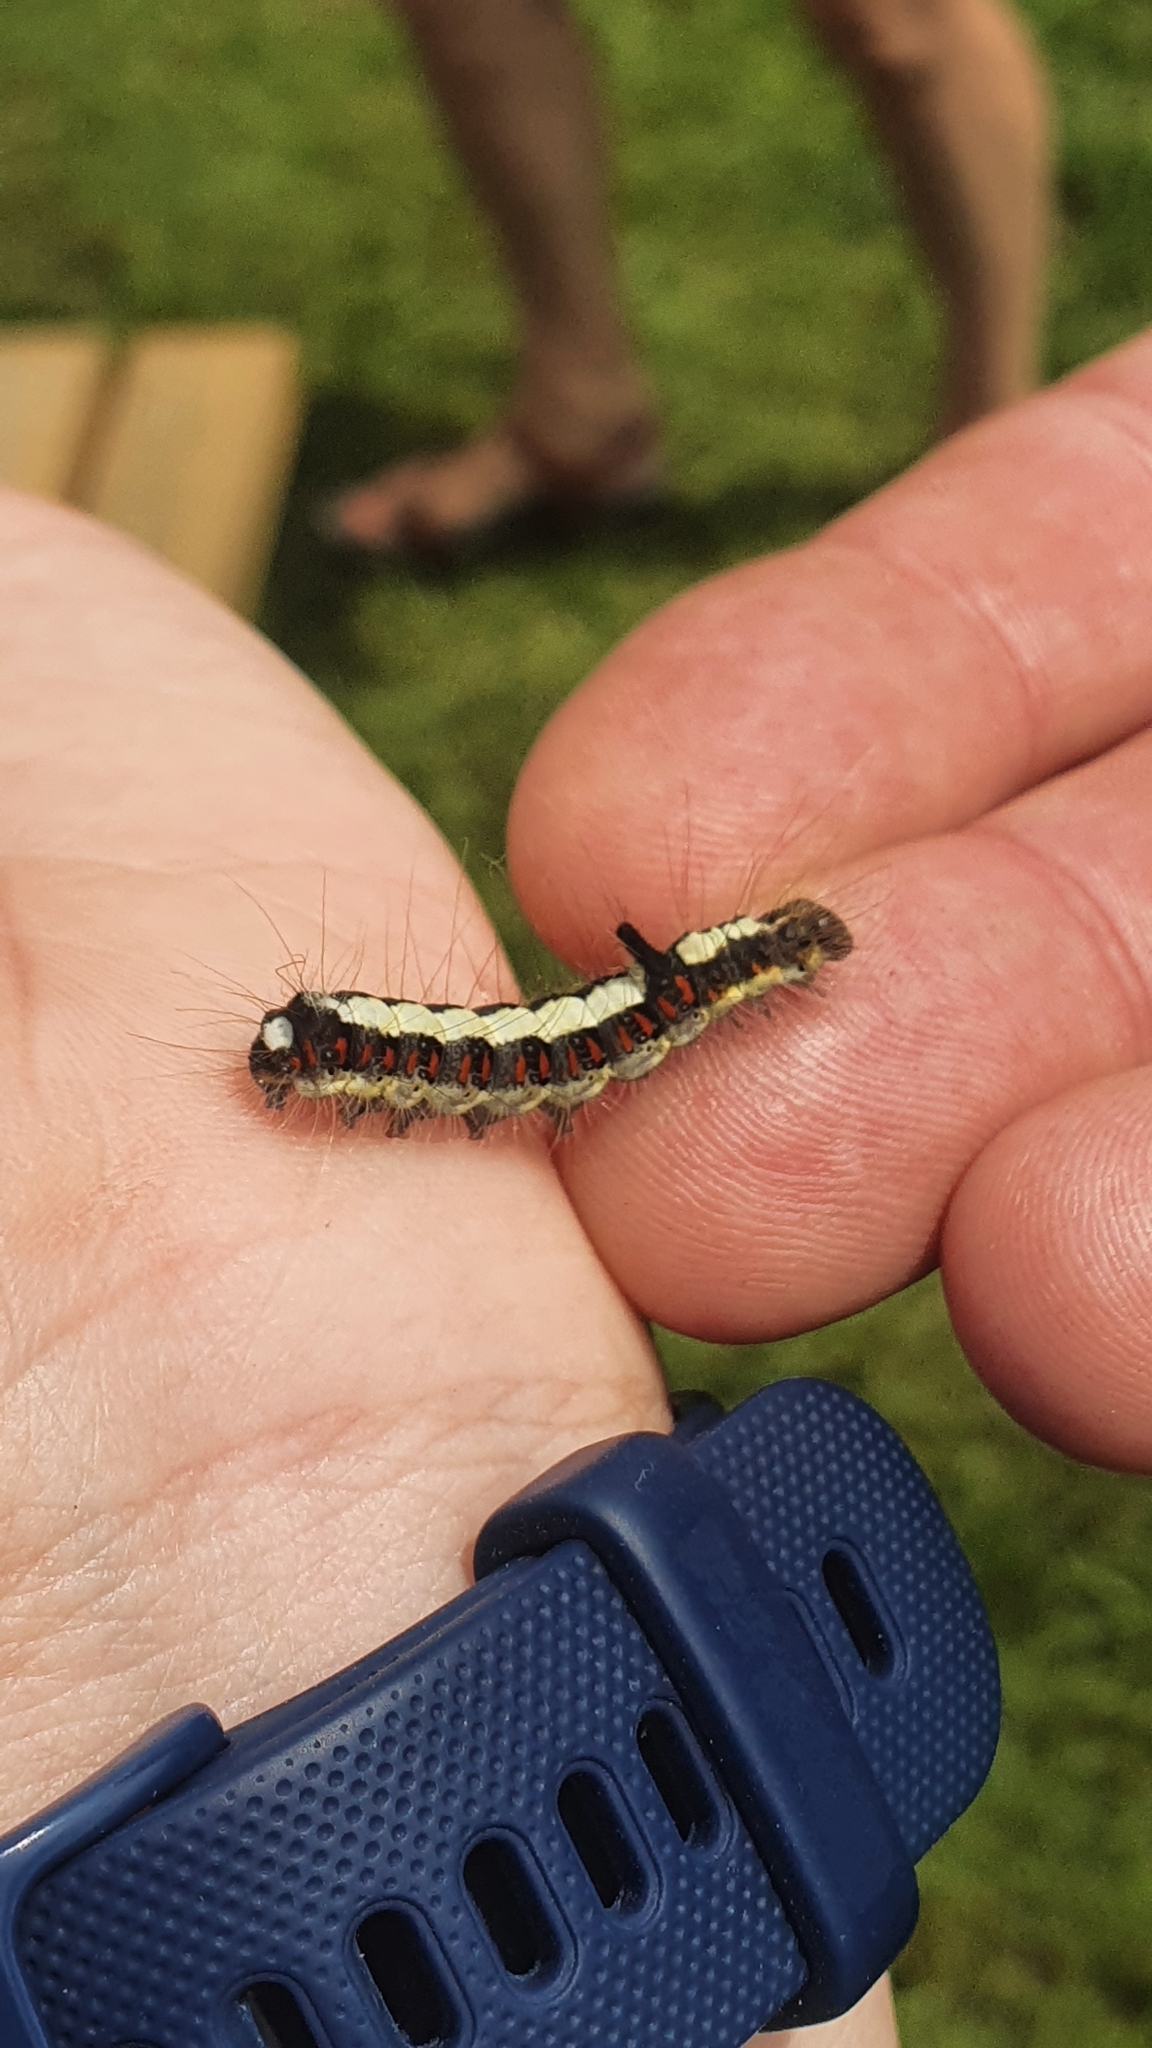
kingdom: Animalia
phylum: Arthropoda
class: Insecta
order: Lepidoptera
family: Noctuidae
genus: Acronicta
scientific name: Acronicta psi
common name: Grey dagger
